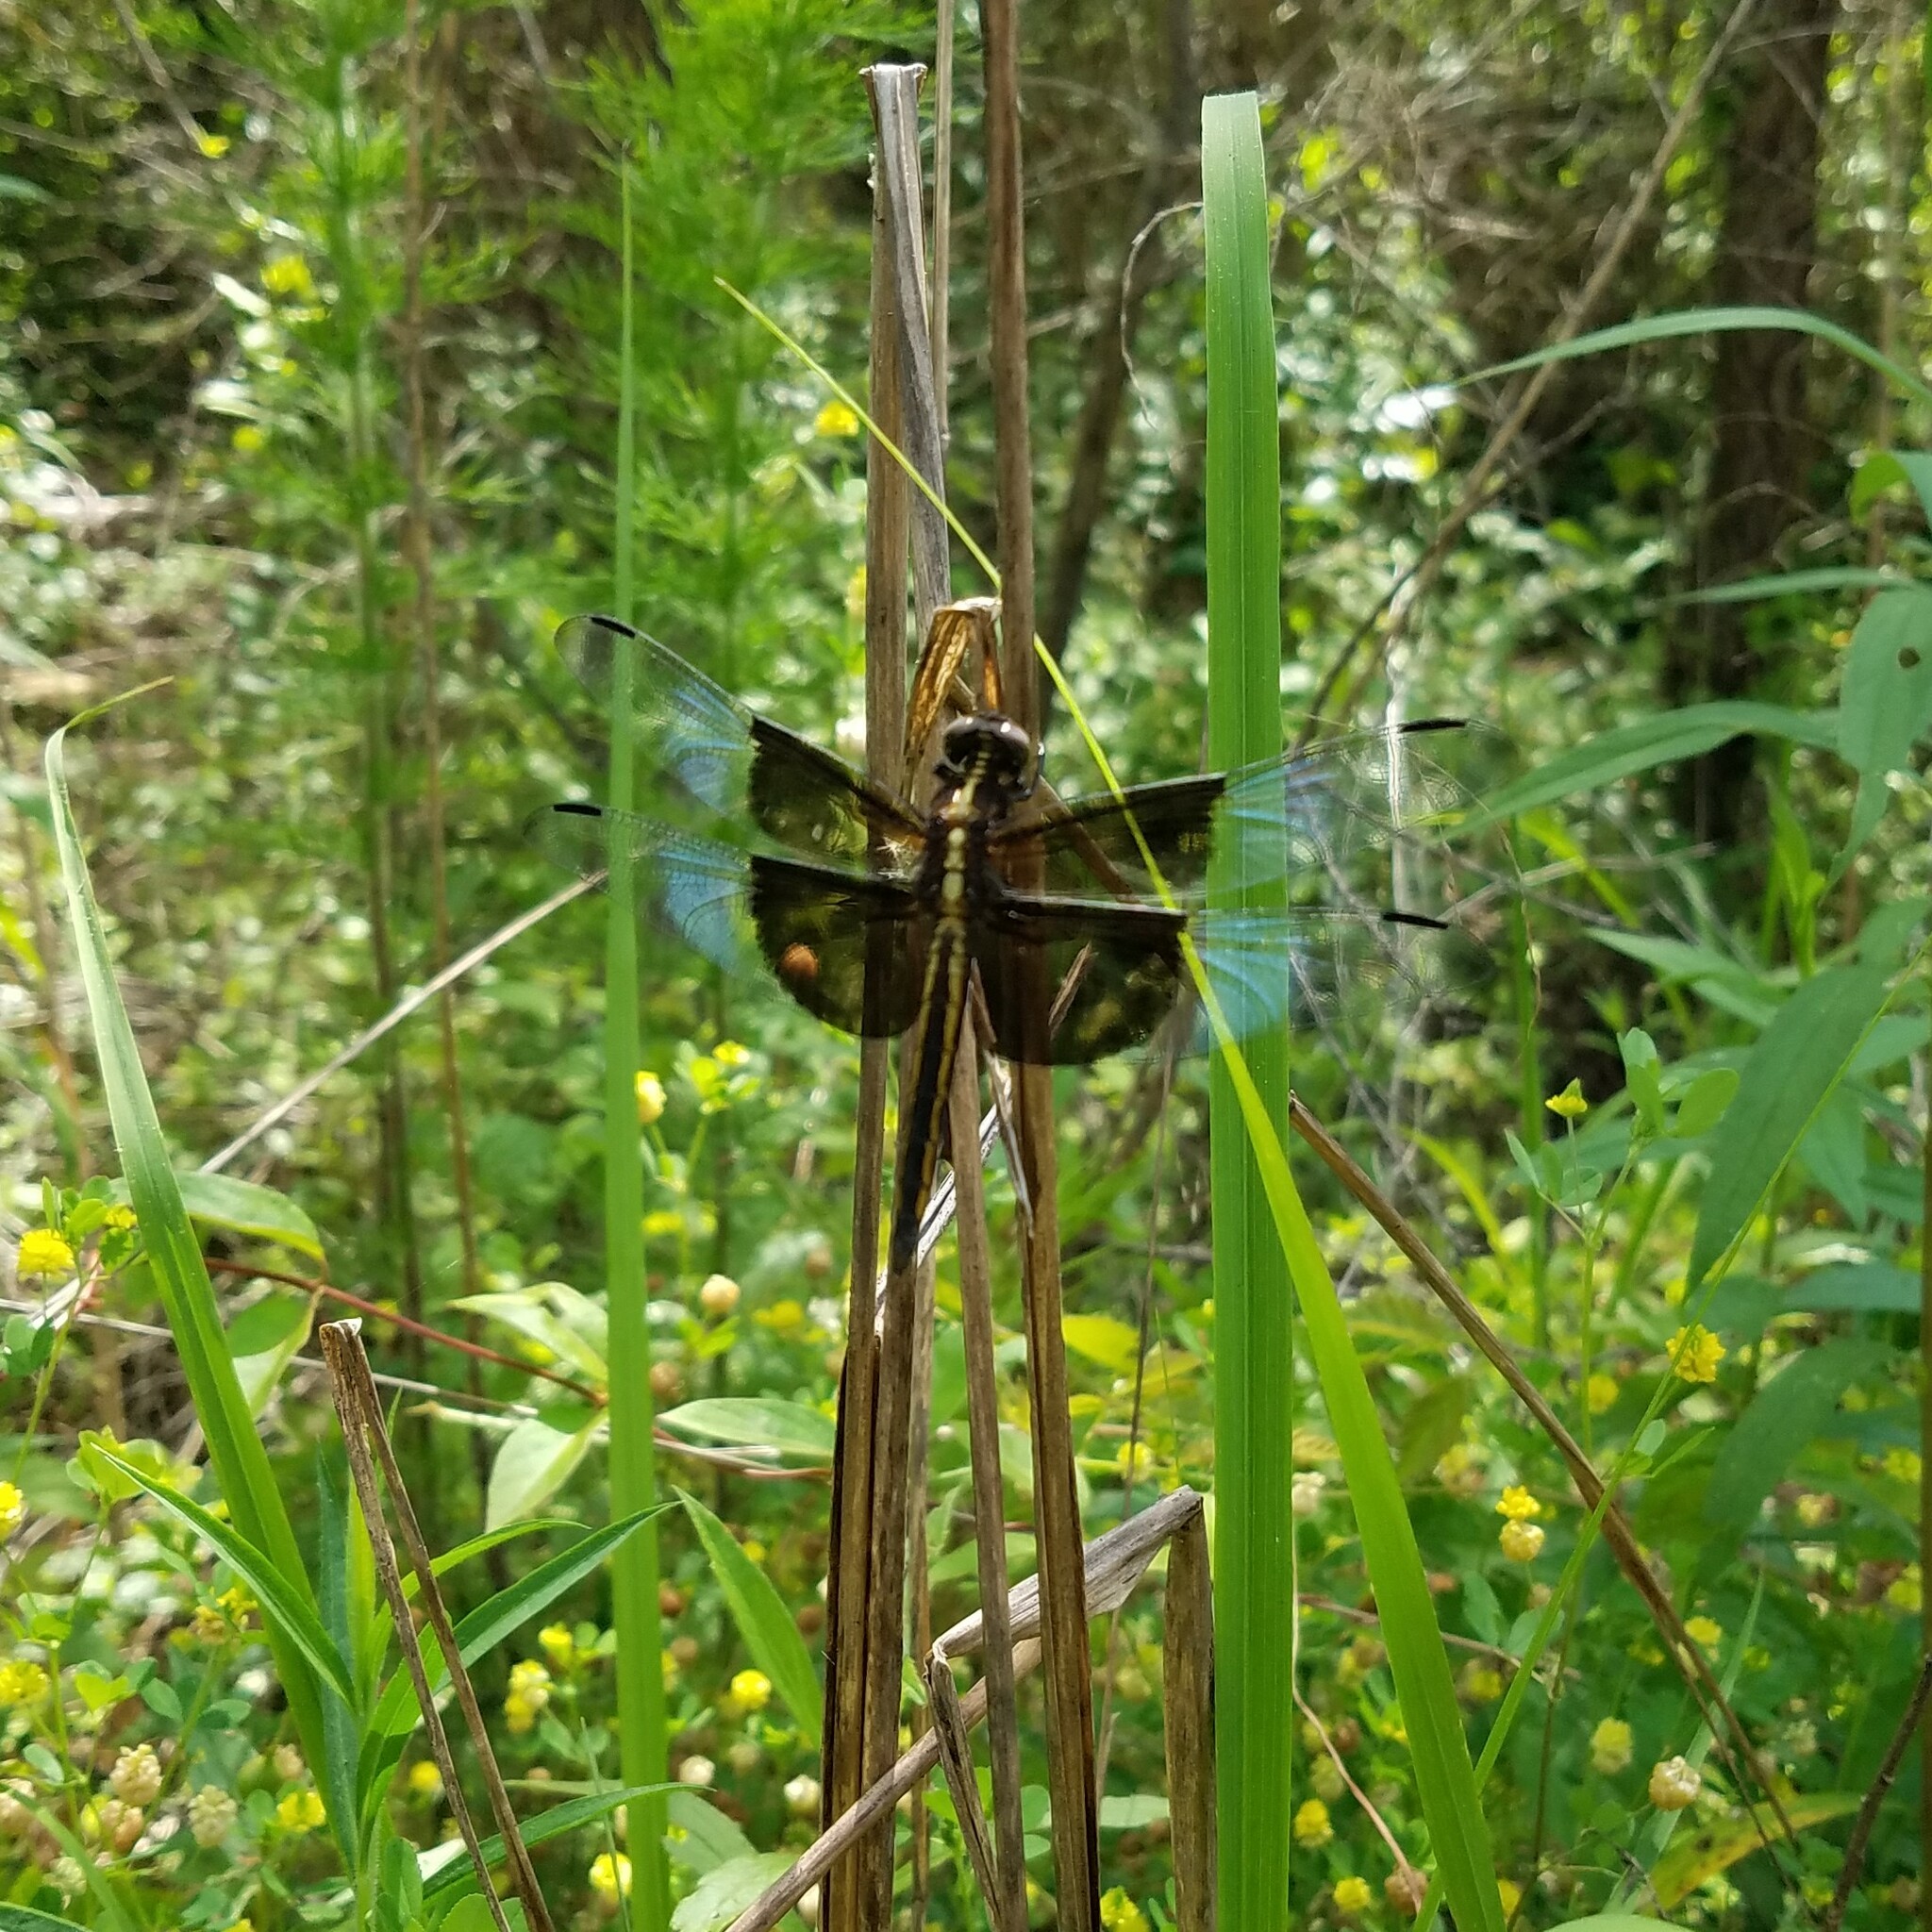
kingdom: Animalia
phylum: Arthropoda
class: Insecta
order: Odonata
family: Libellulidae
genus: Libellula
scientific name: Libellula luctuosa
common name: Widow skimmer
